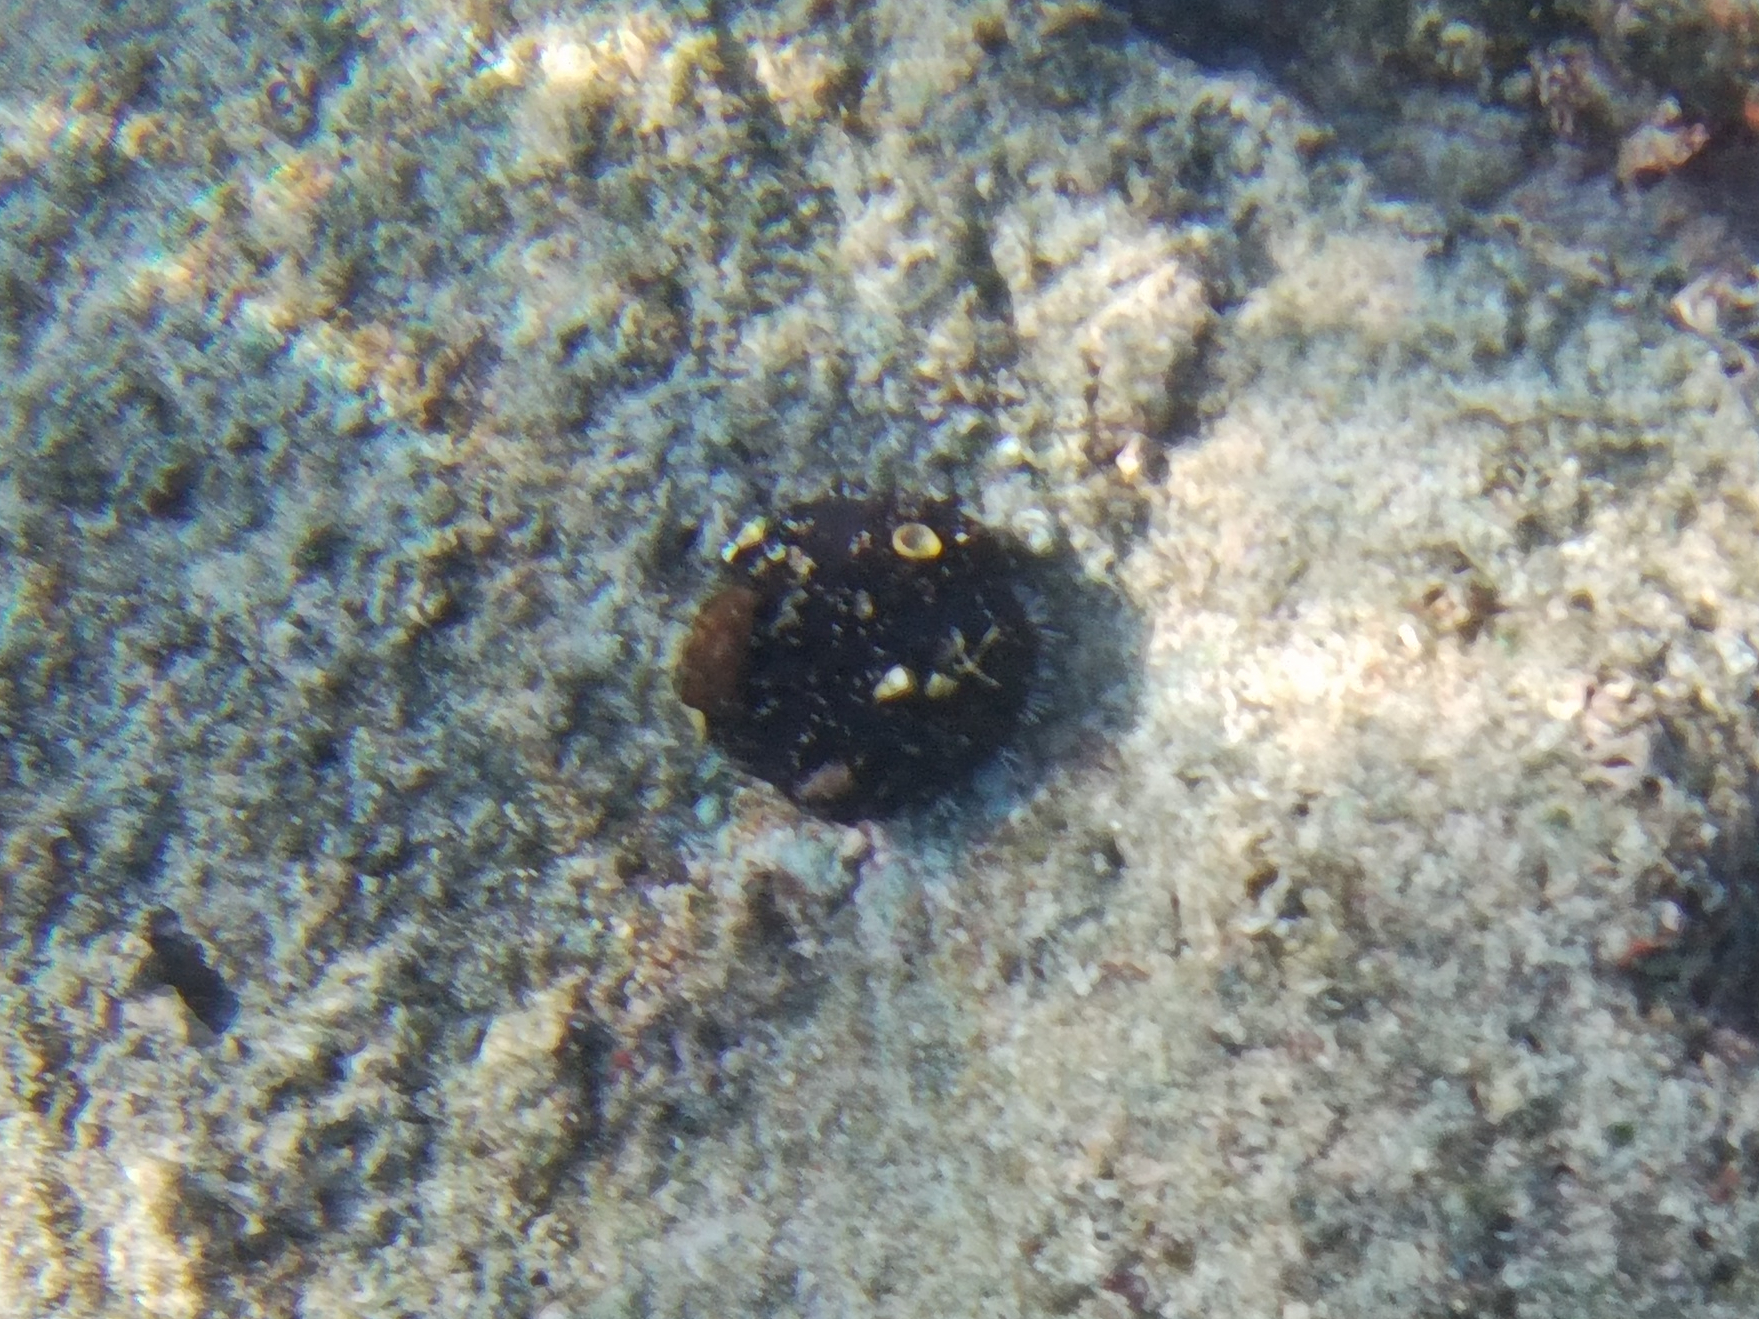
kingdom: Animalia
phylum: Echinodermata
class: Echinoidea
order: Camarodonta
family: Toxopneustidae
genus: Tripneustes
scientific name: Tripneustes gratilla
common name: Bischofsmützenseeigel
